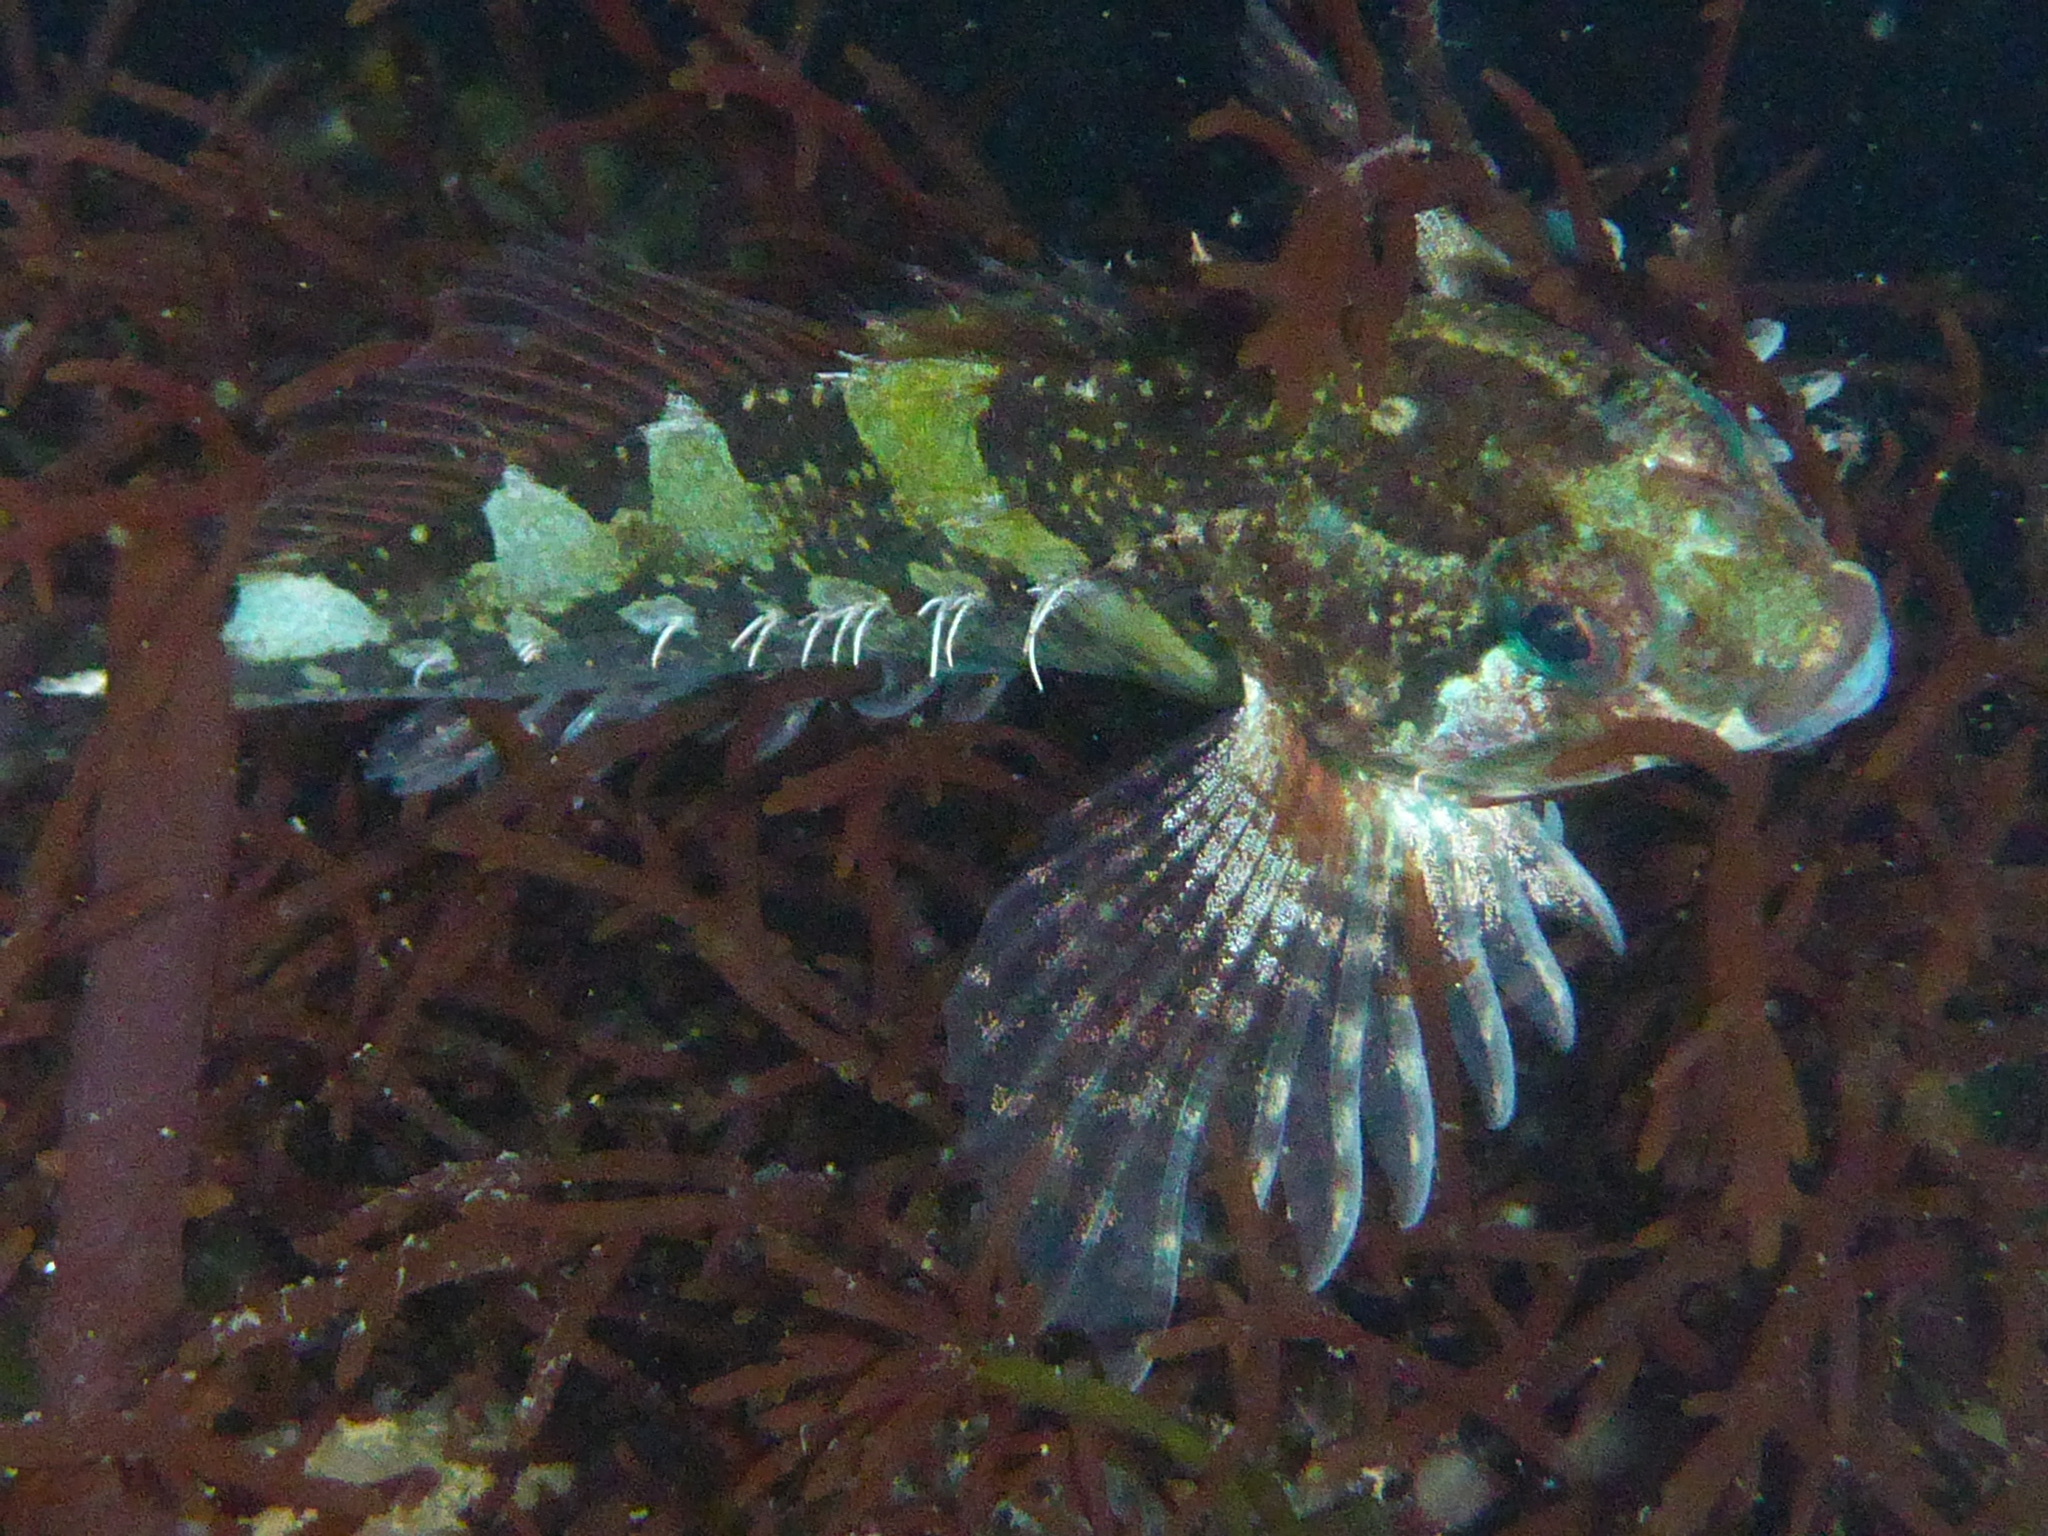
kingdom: Animalia
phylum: Chordata
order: Scorpaeniformes
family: Cottidae
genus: Oligocottus
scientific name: Oligocottus snyderi
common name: Fluffy sculpin
